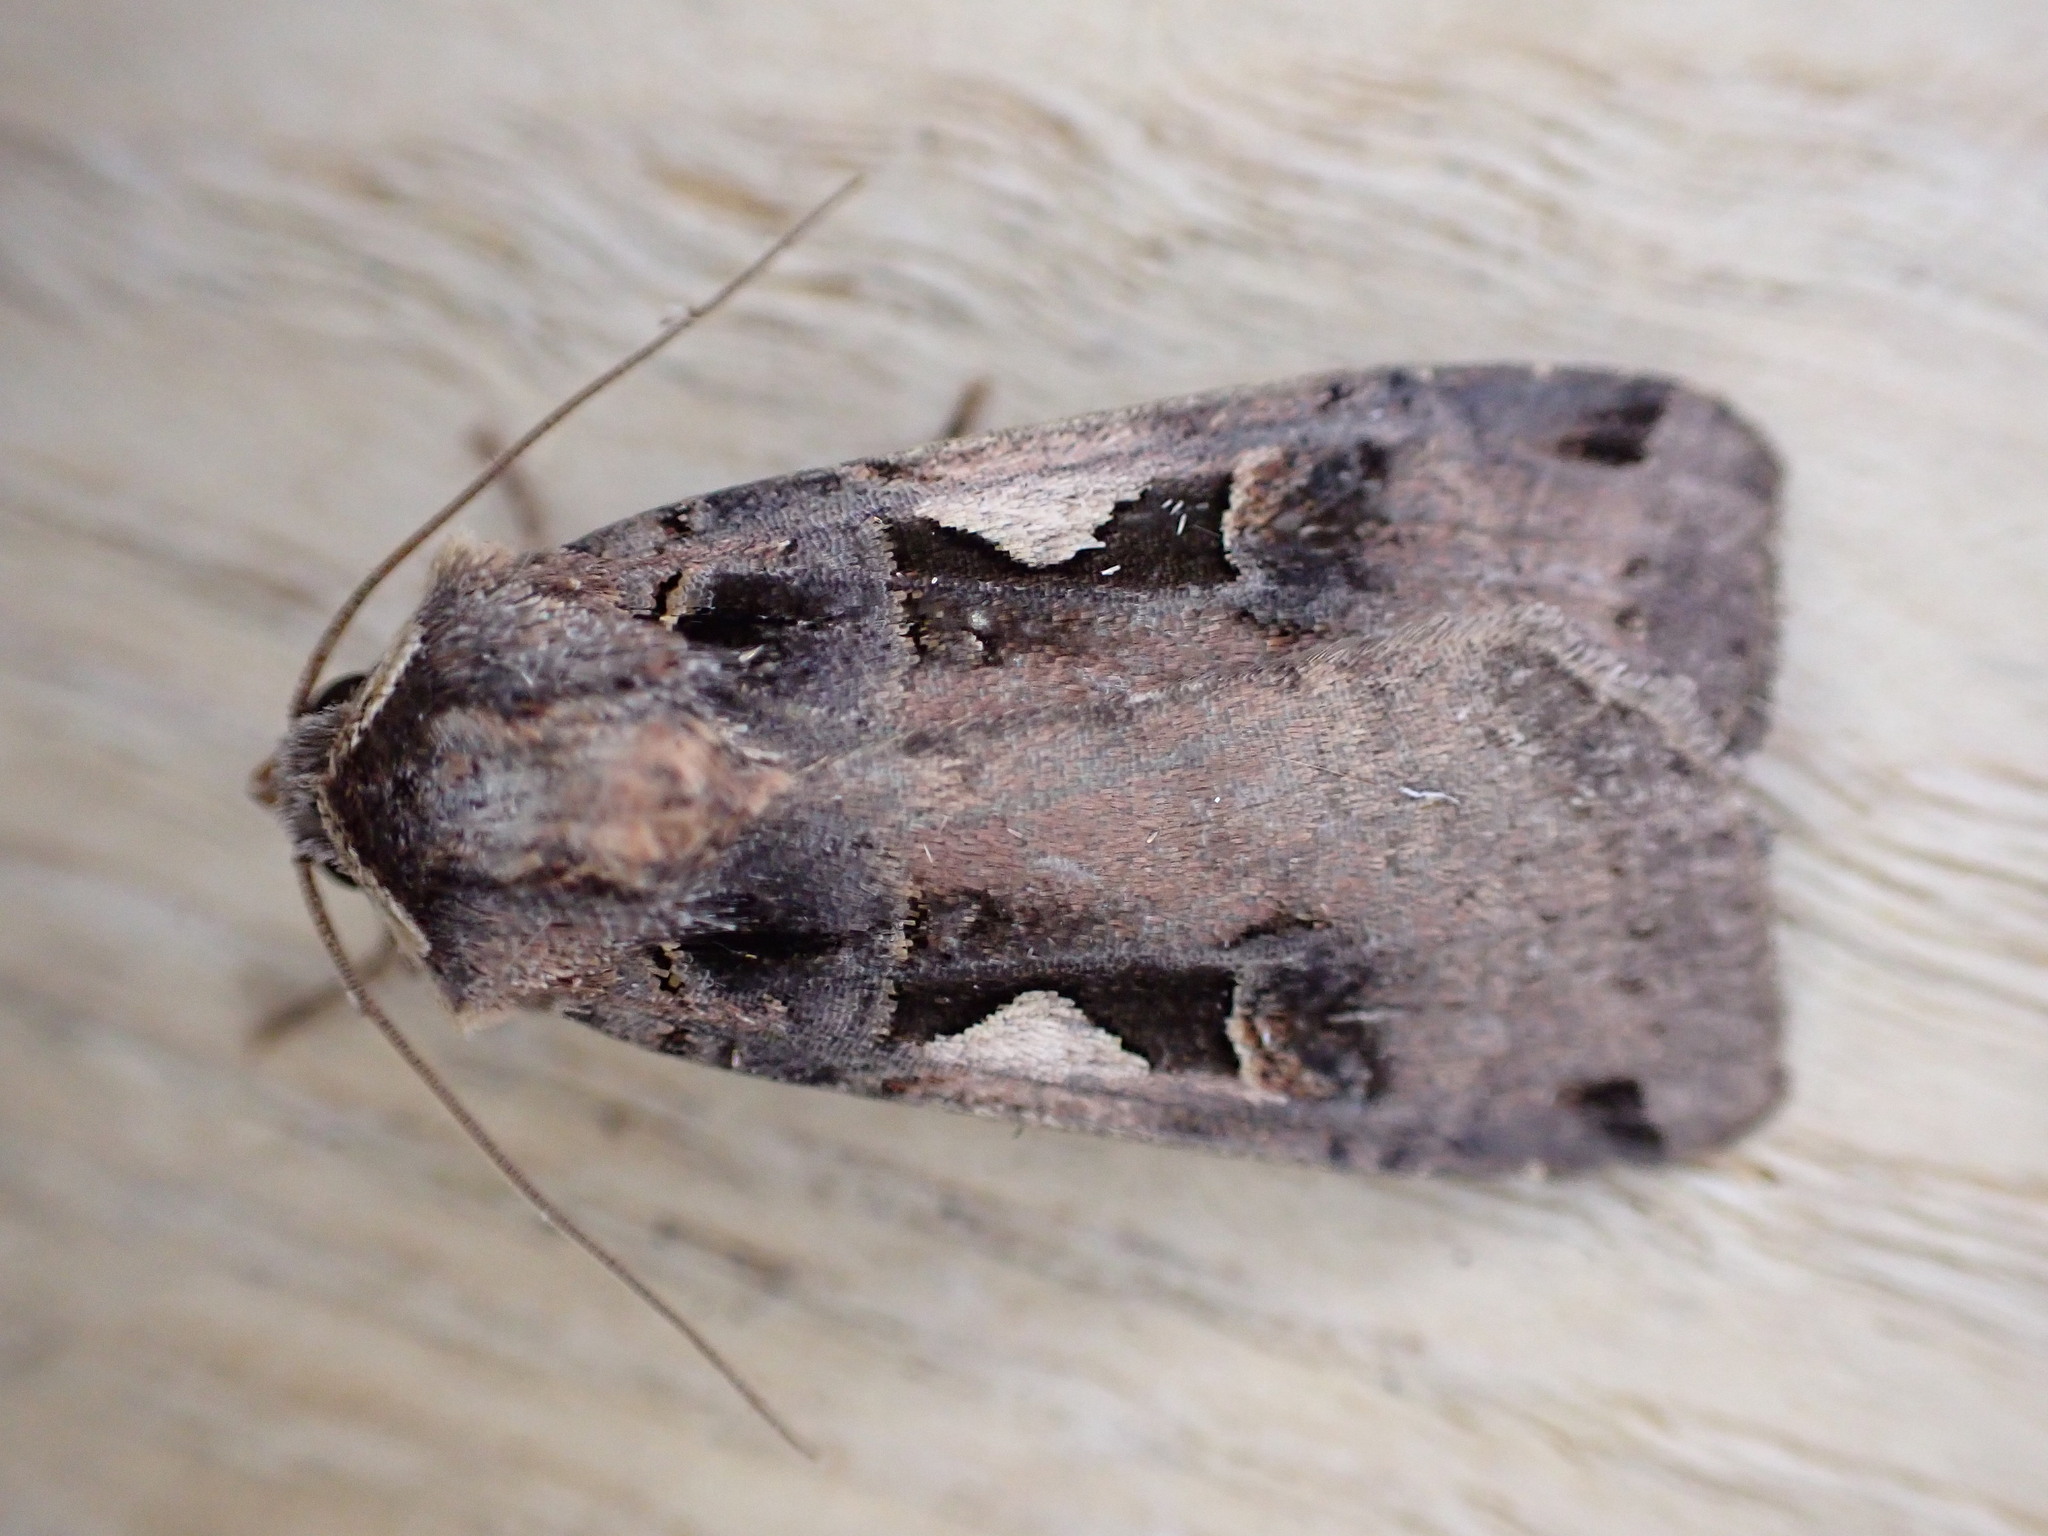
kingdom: Animalia
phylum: Arthropoda
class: Insecta
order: Lepidoptera
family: Noctuidae
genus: Xestia
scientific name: Xestia c-nigrum
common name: Setaceous hebrew character
